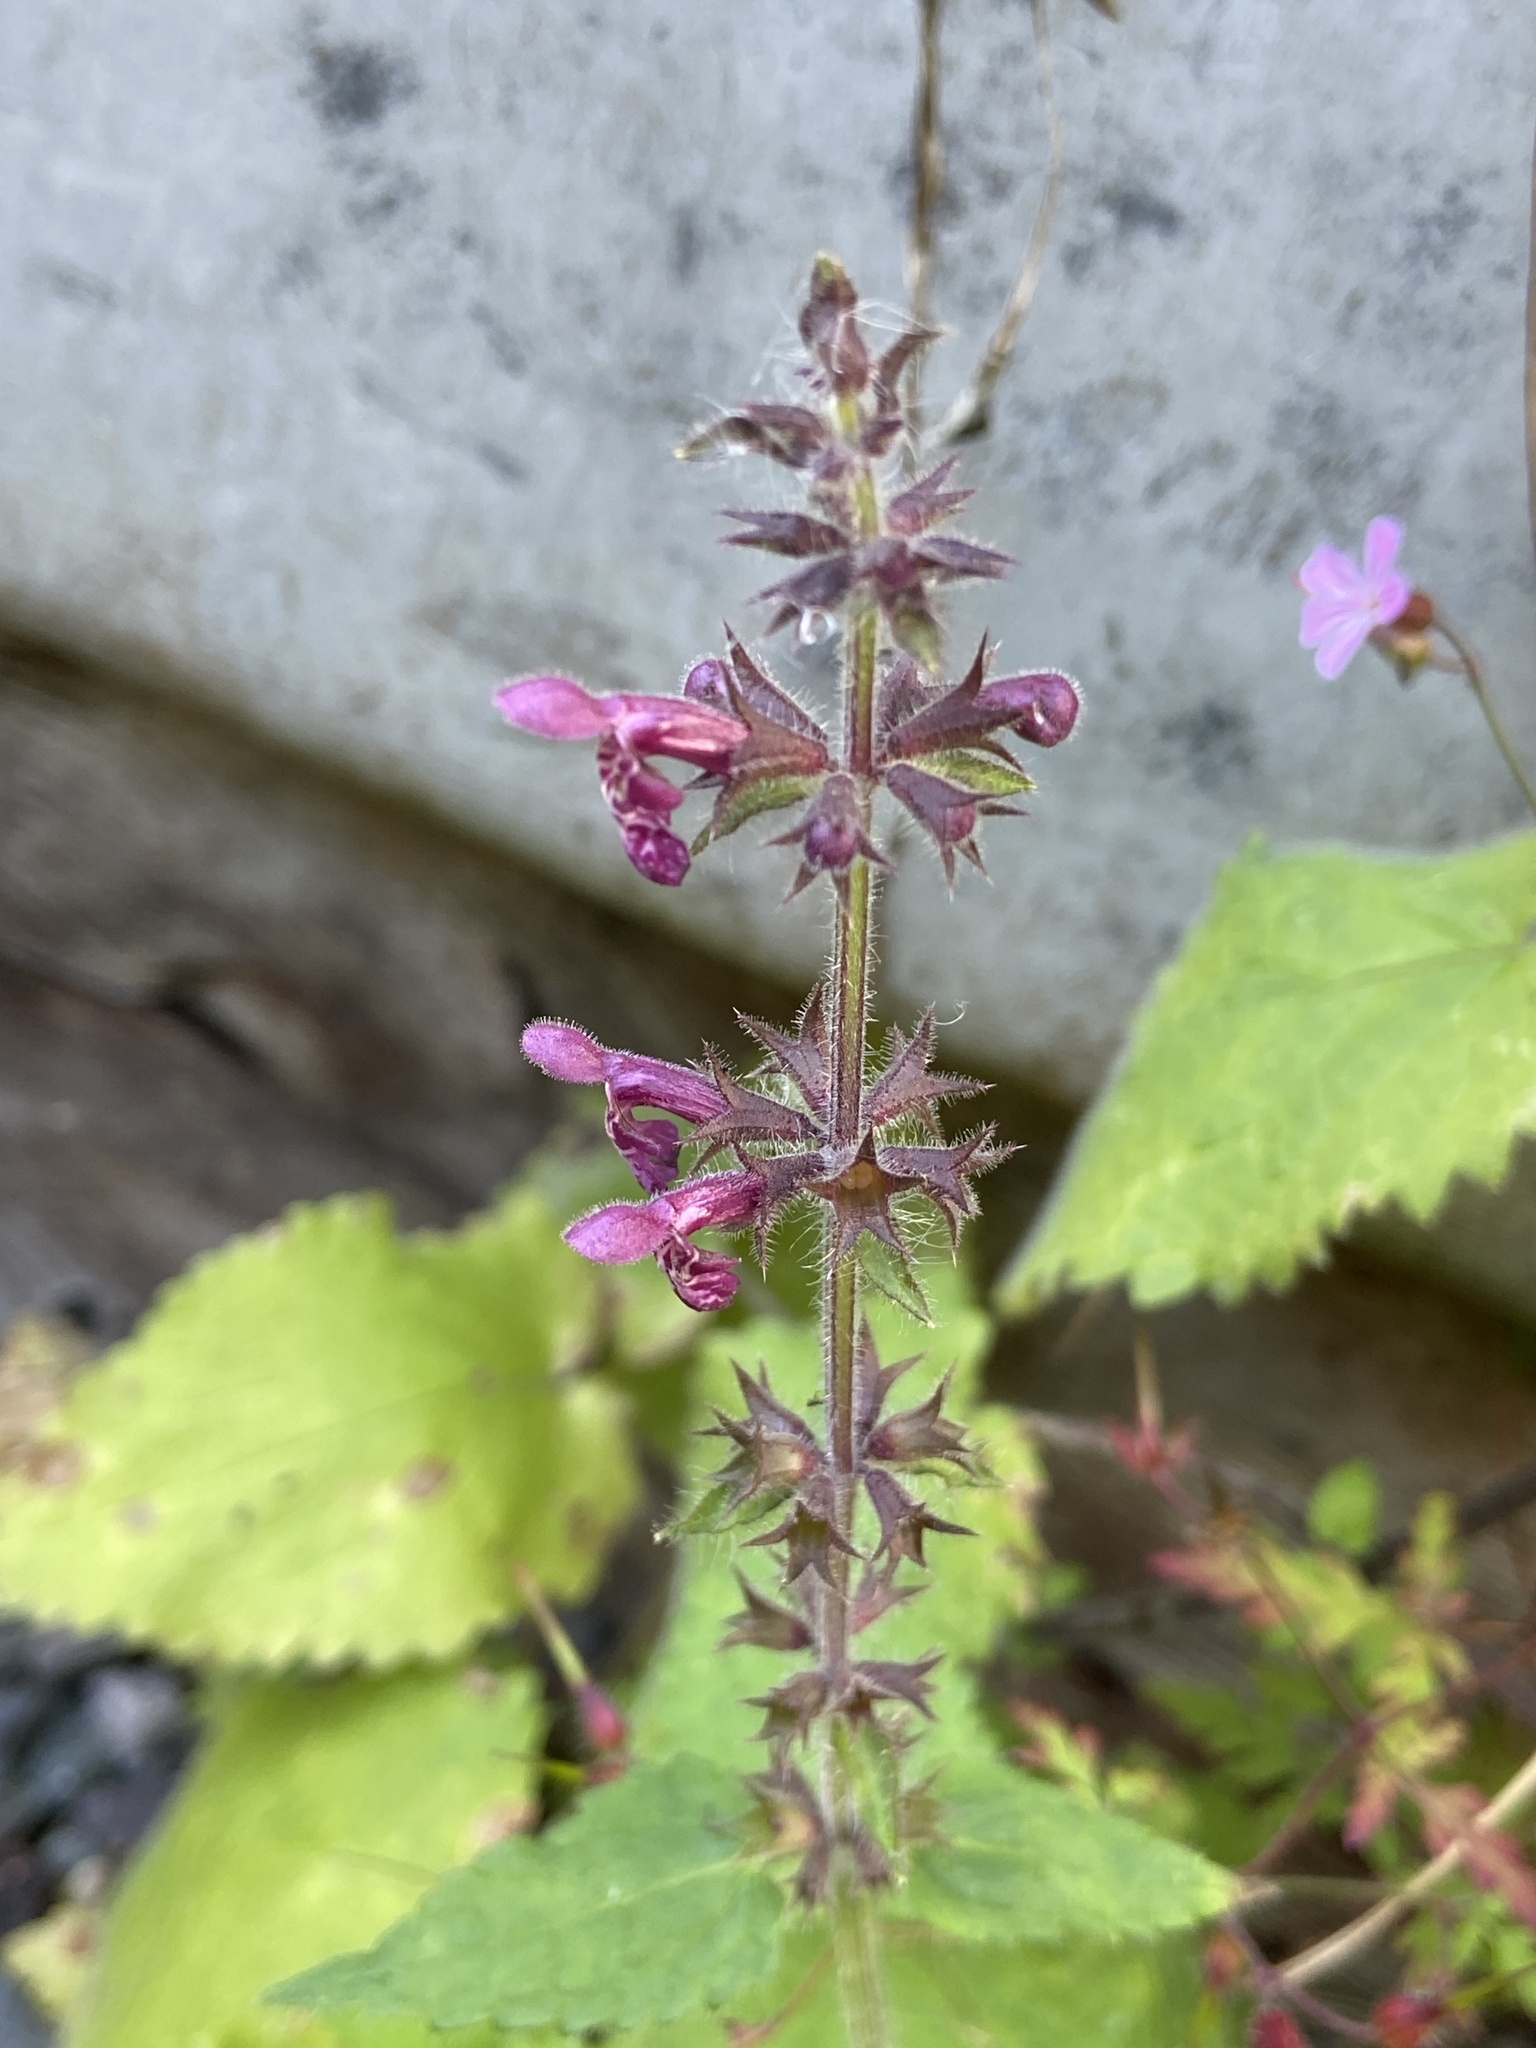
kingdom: Plantae
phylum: Tracheophyta
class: Magnoliopsida
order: Lamiales
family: Lamiaceae
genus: Stachys
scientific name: Stachys sylvatica
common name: Hedge woundwort
